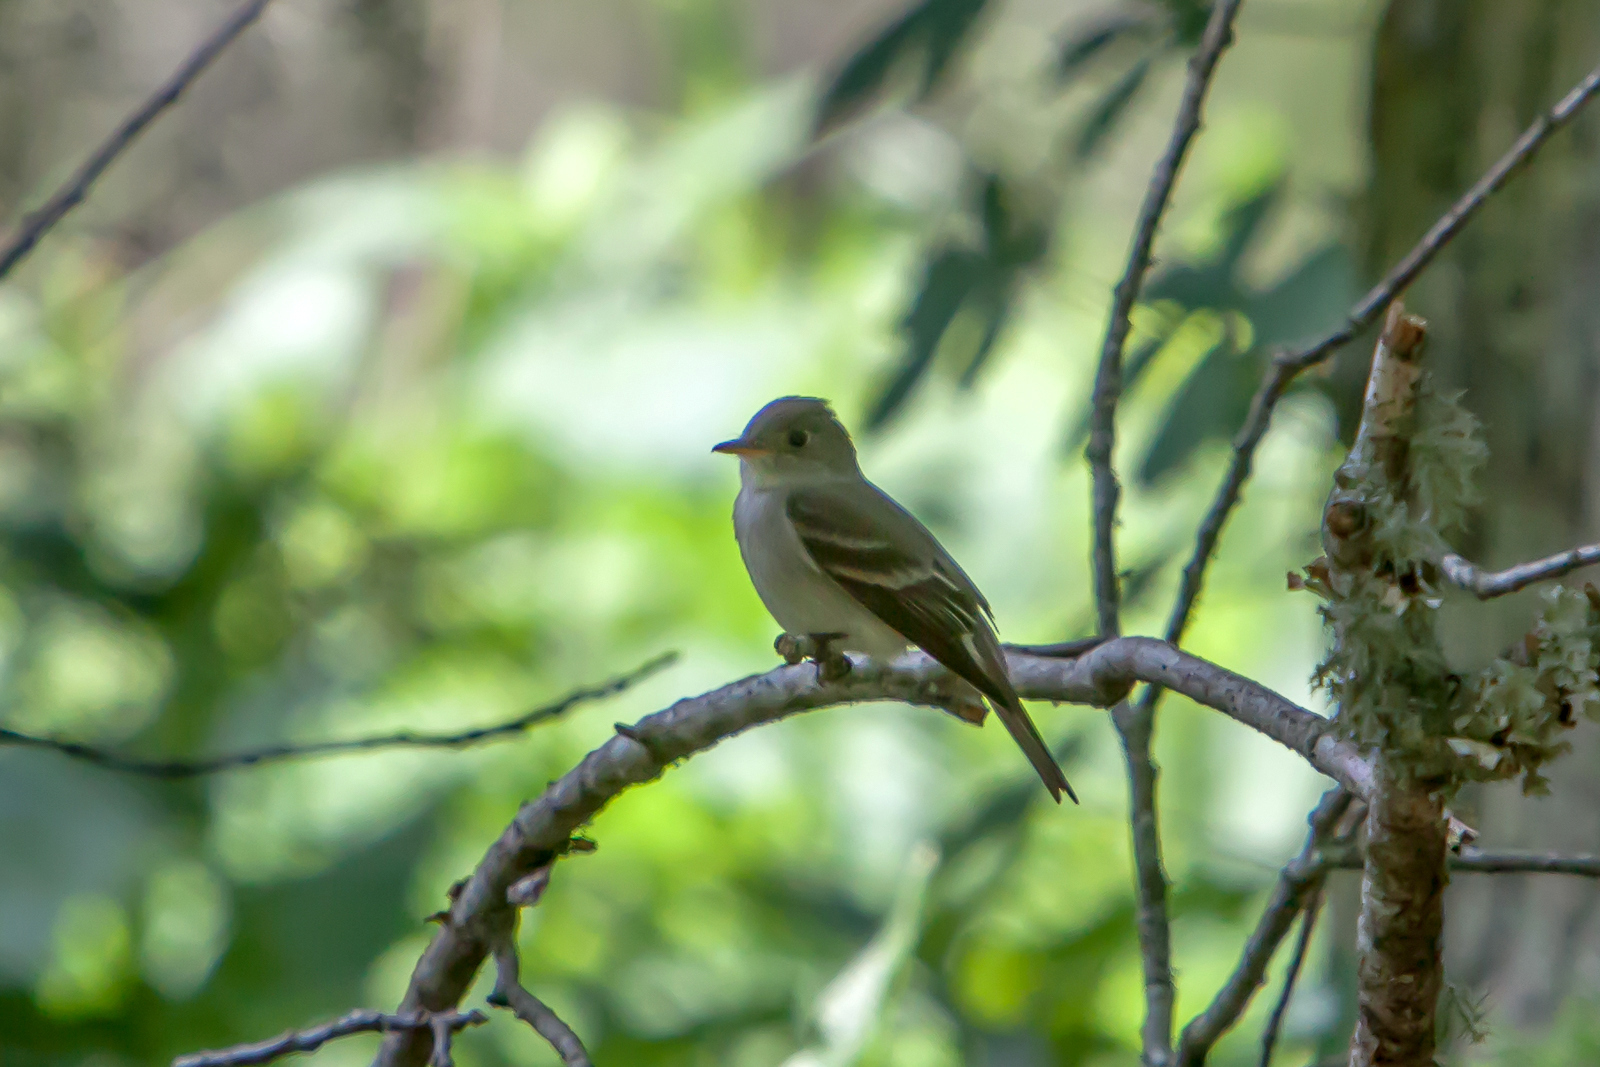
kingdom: Animalia
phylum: Chordata
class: Aves
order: Passeriformes
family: Tyrannidae
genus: Empidonax
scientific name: Empidonax virescens
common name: Acadian flycatcher
